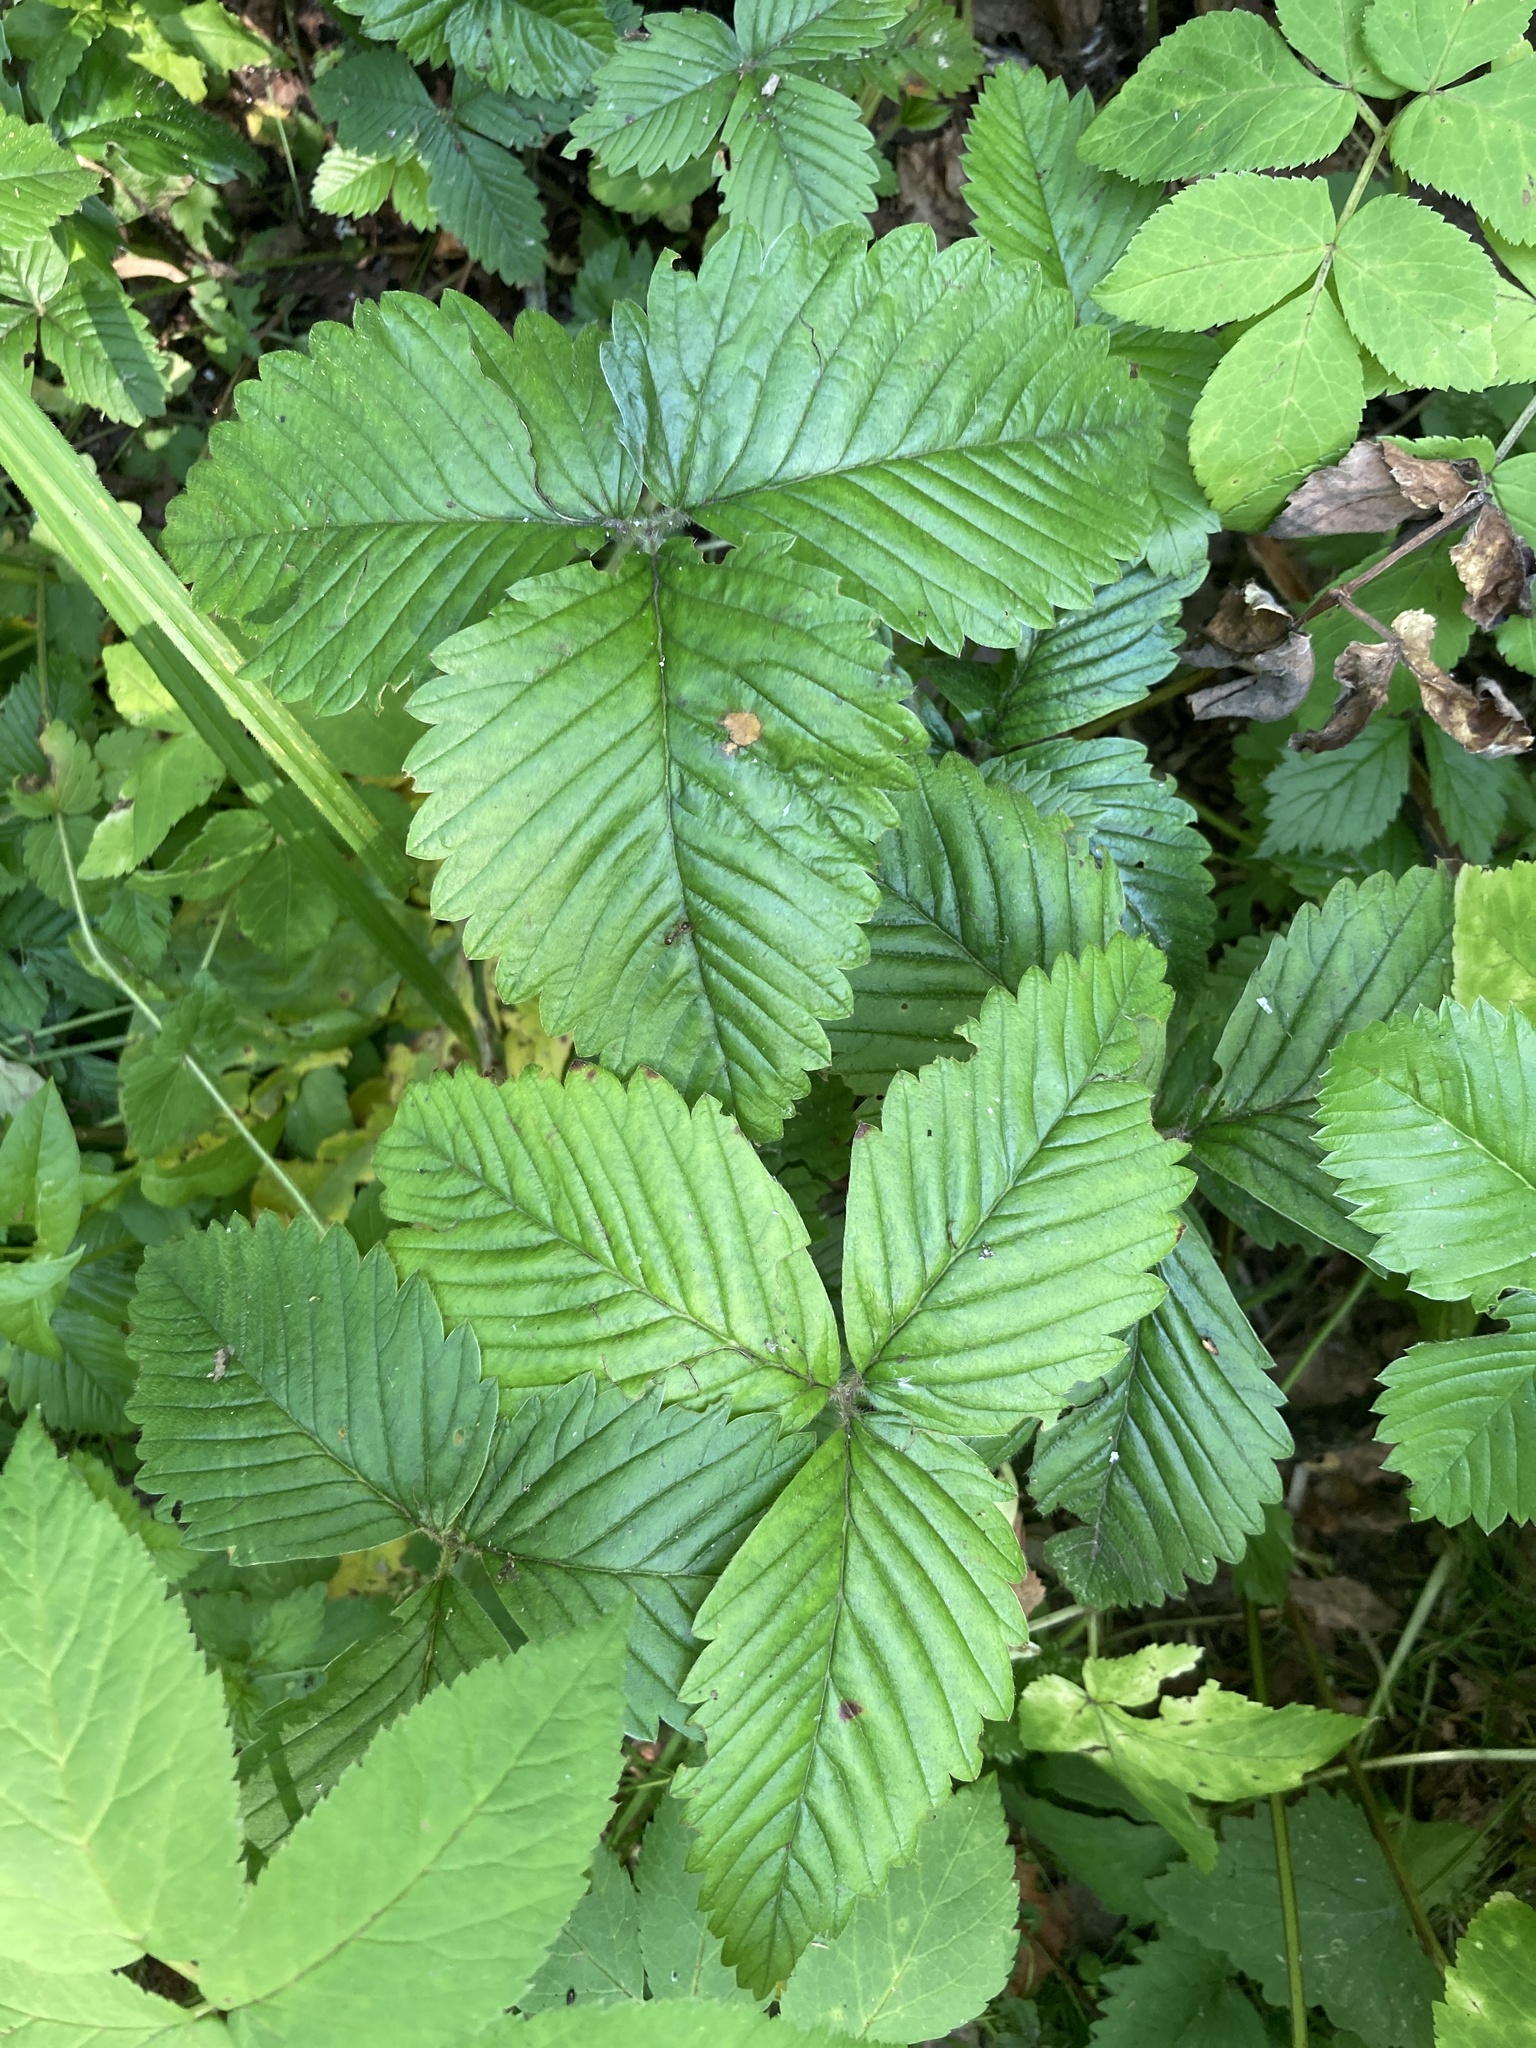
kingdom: Plantae
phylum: Tracheophyta
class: Magnoliopsida
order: Rosales
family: Rosaceae
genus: Fragaria
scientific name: Fragaria moschata
